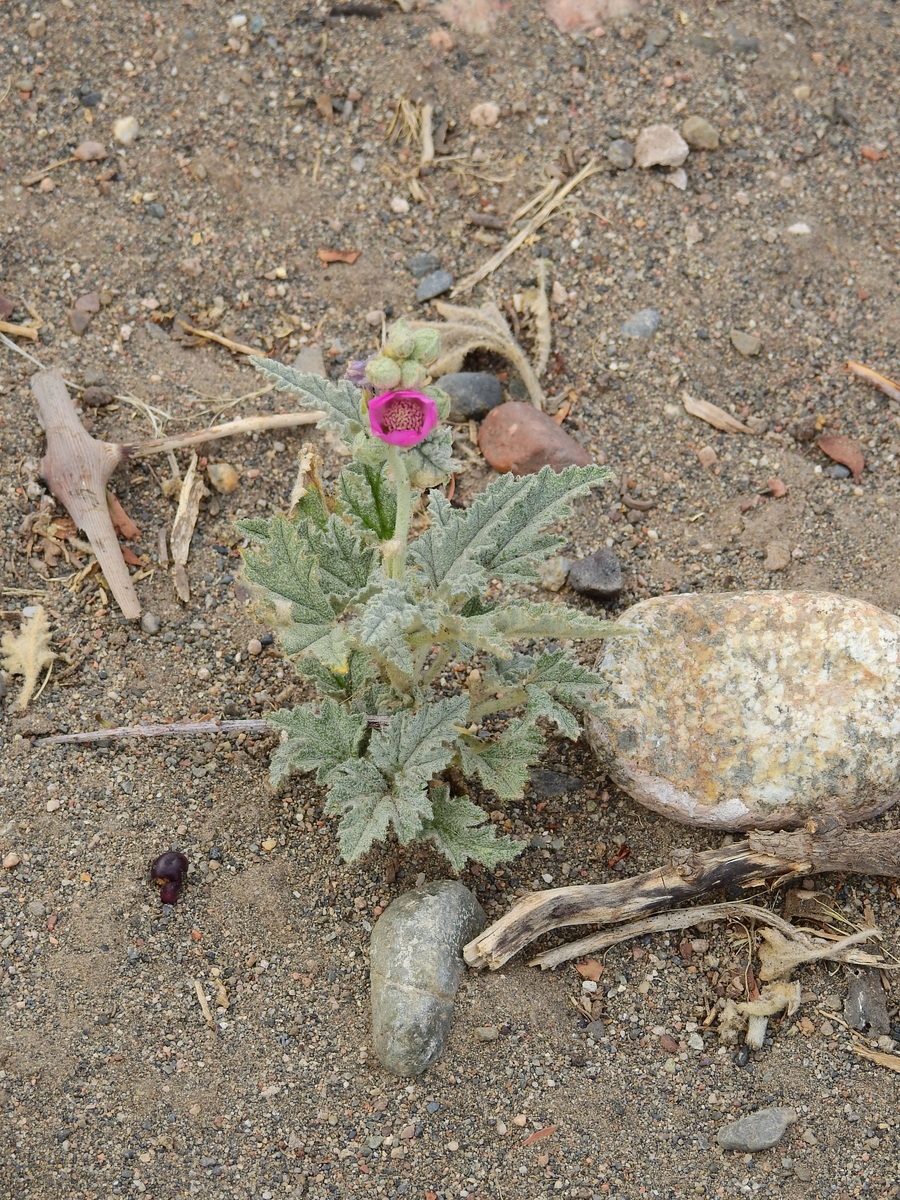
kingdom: Plantae
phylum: Tracheophyta
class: Magnoliopsida
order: Malvales
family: Malvaceae
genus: Sphaeralcea
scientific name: Sphaeralcea mendocina
